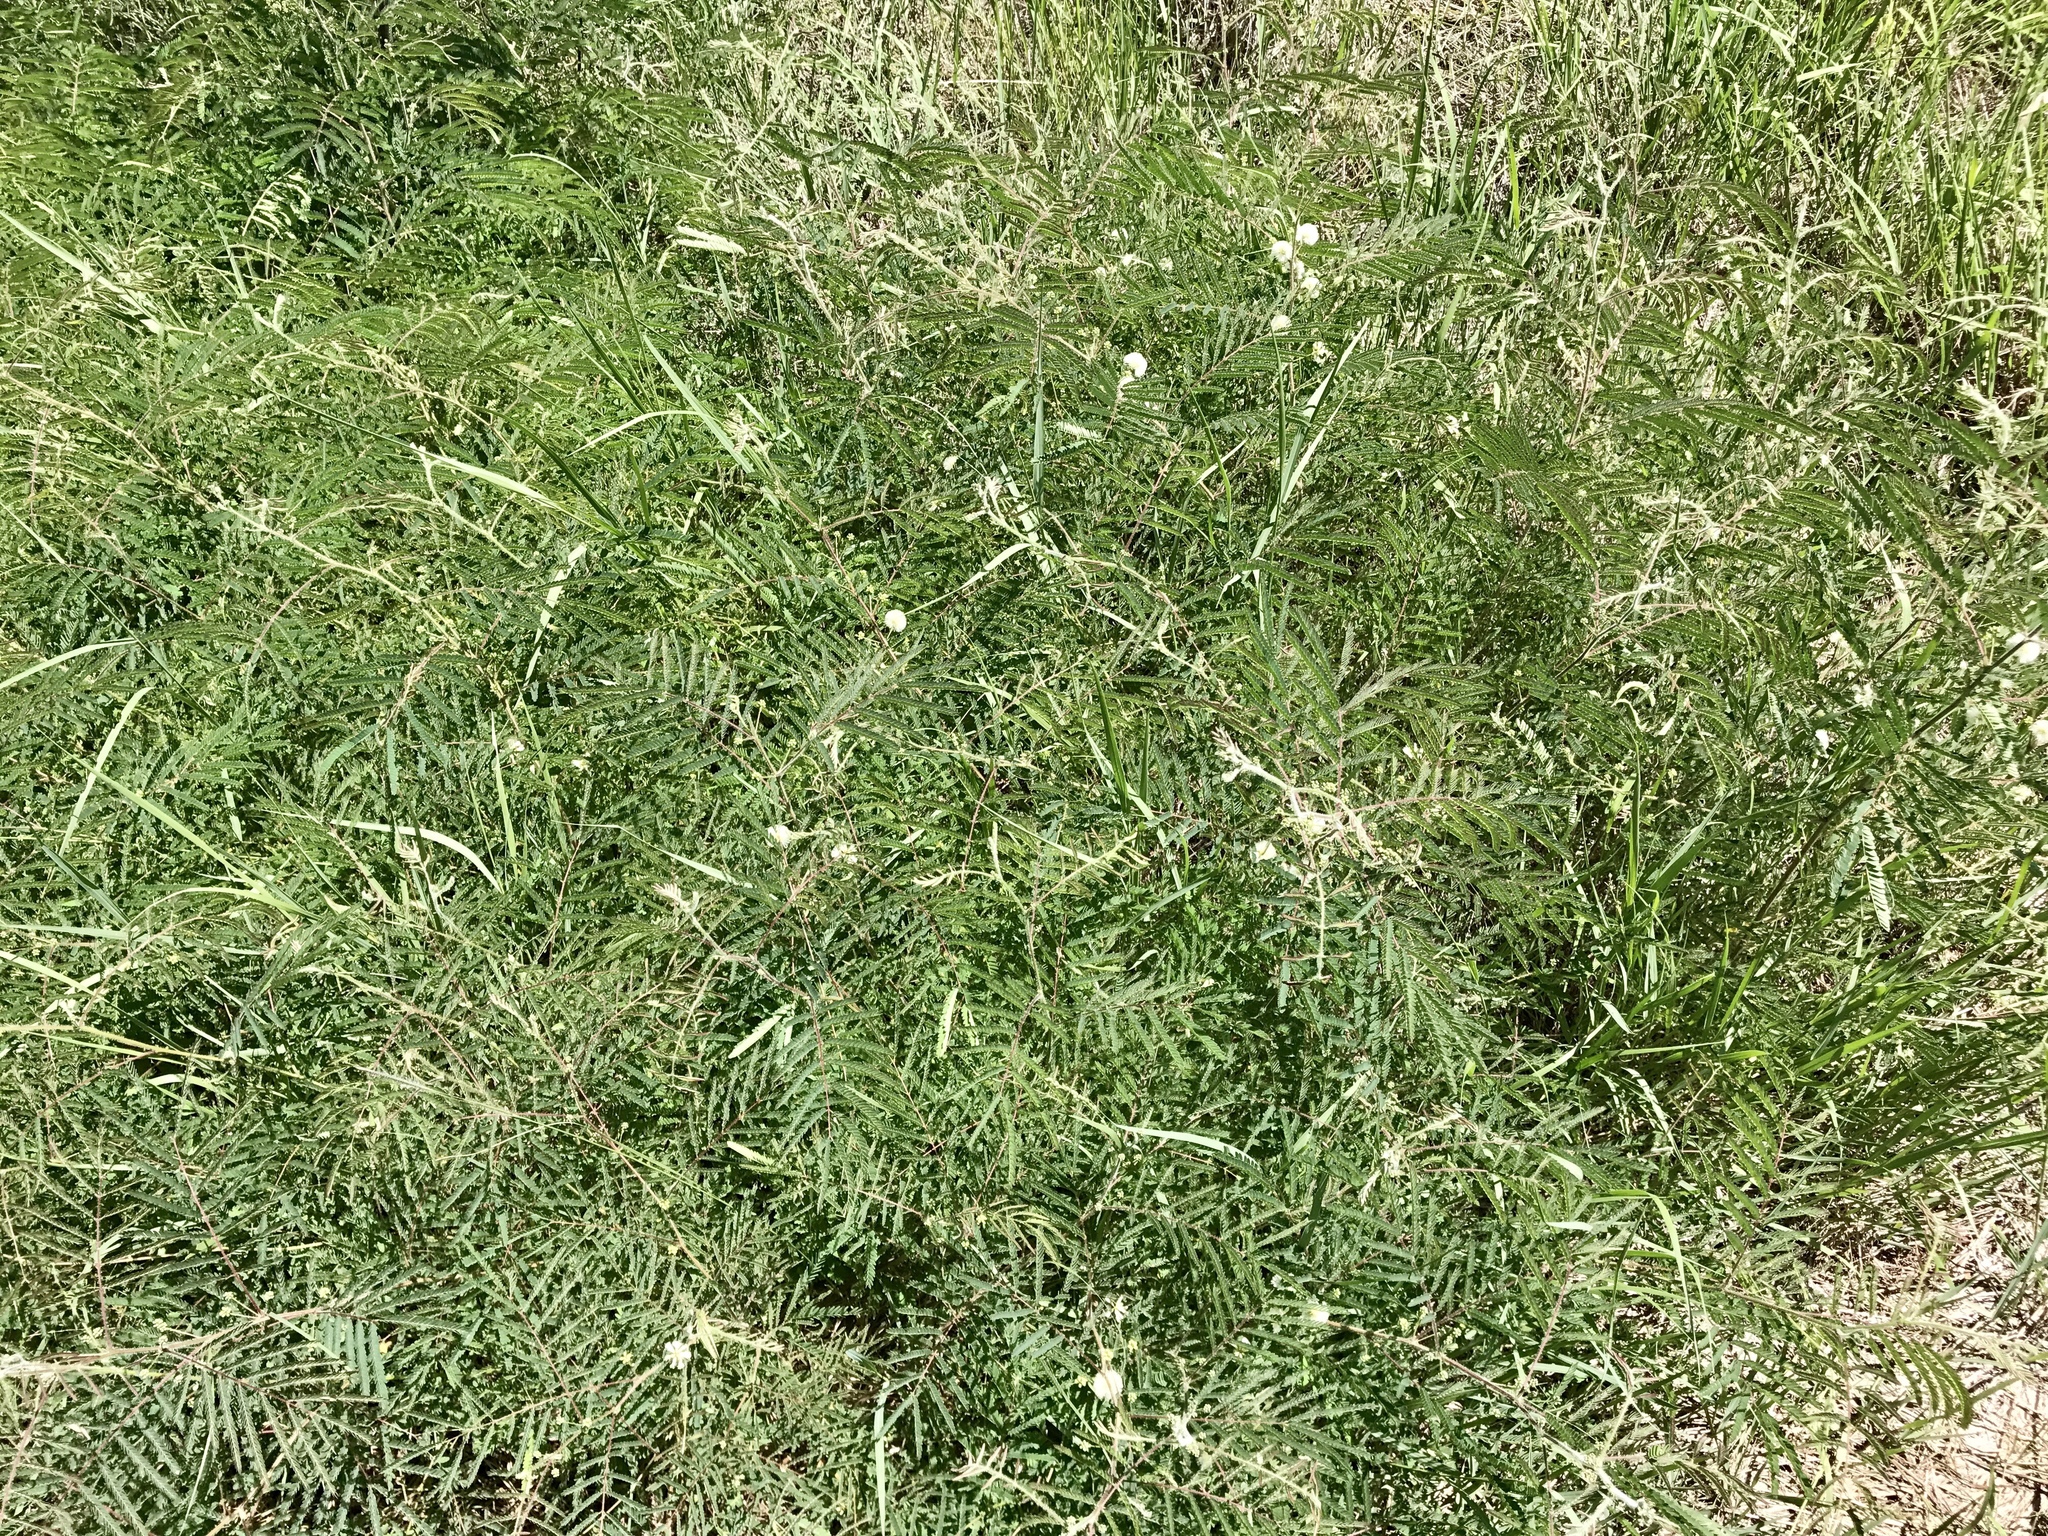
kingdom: Plantae
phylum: Tracheophyta
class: Magnoliopsida
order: Fabales
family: Fabaceae
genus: Acaciella
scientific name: Acaciella angustissima
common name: Prairie acacia
